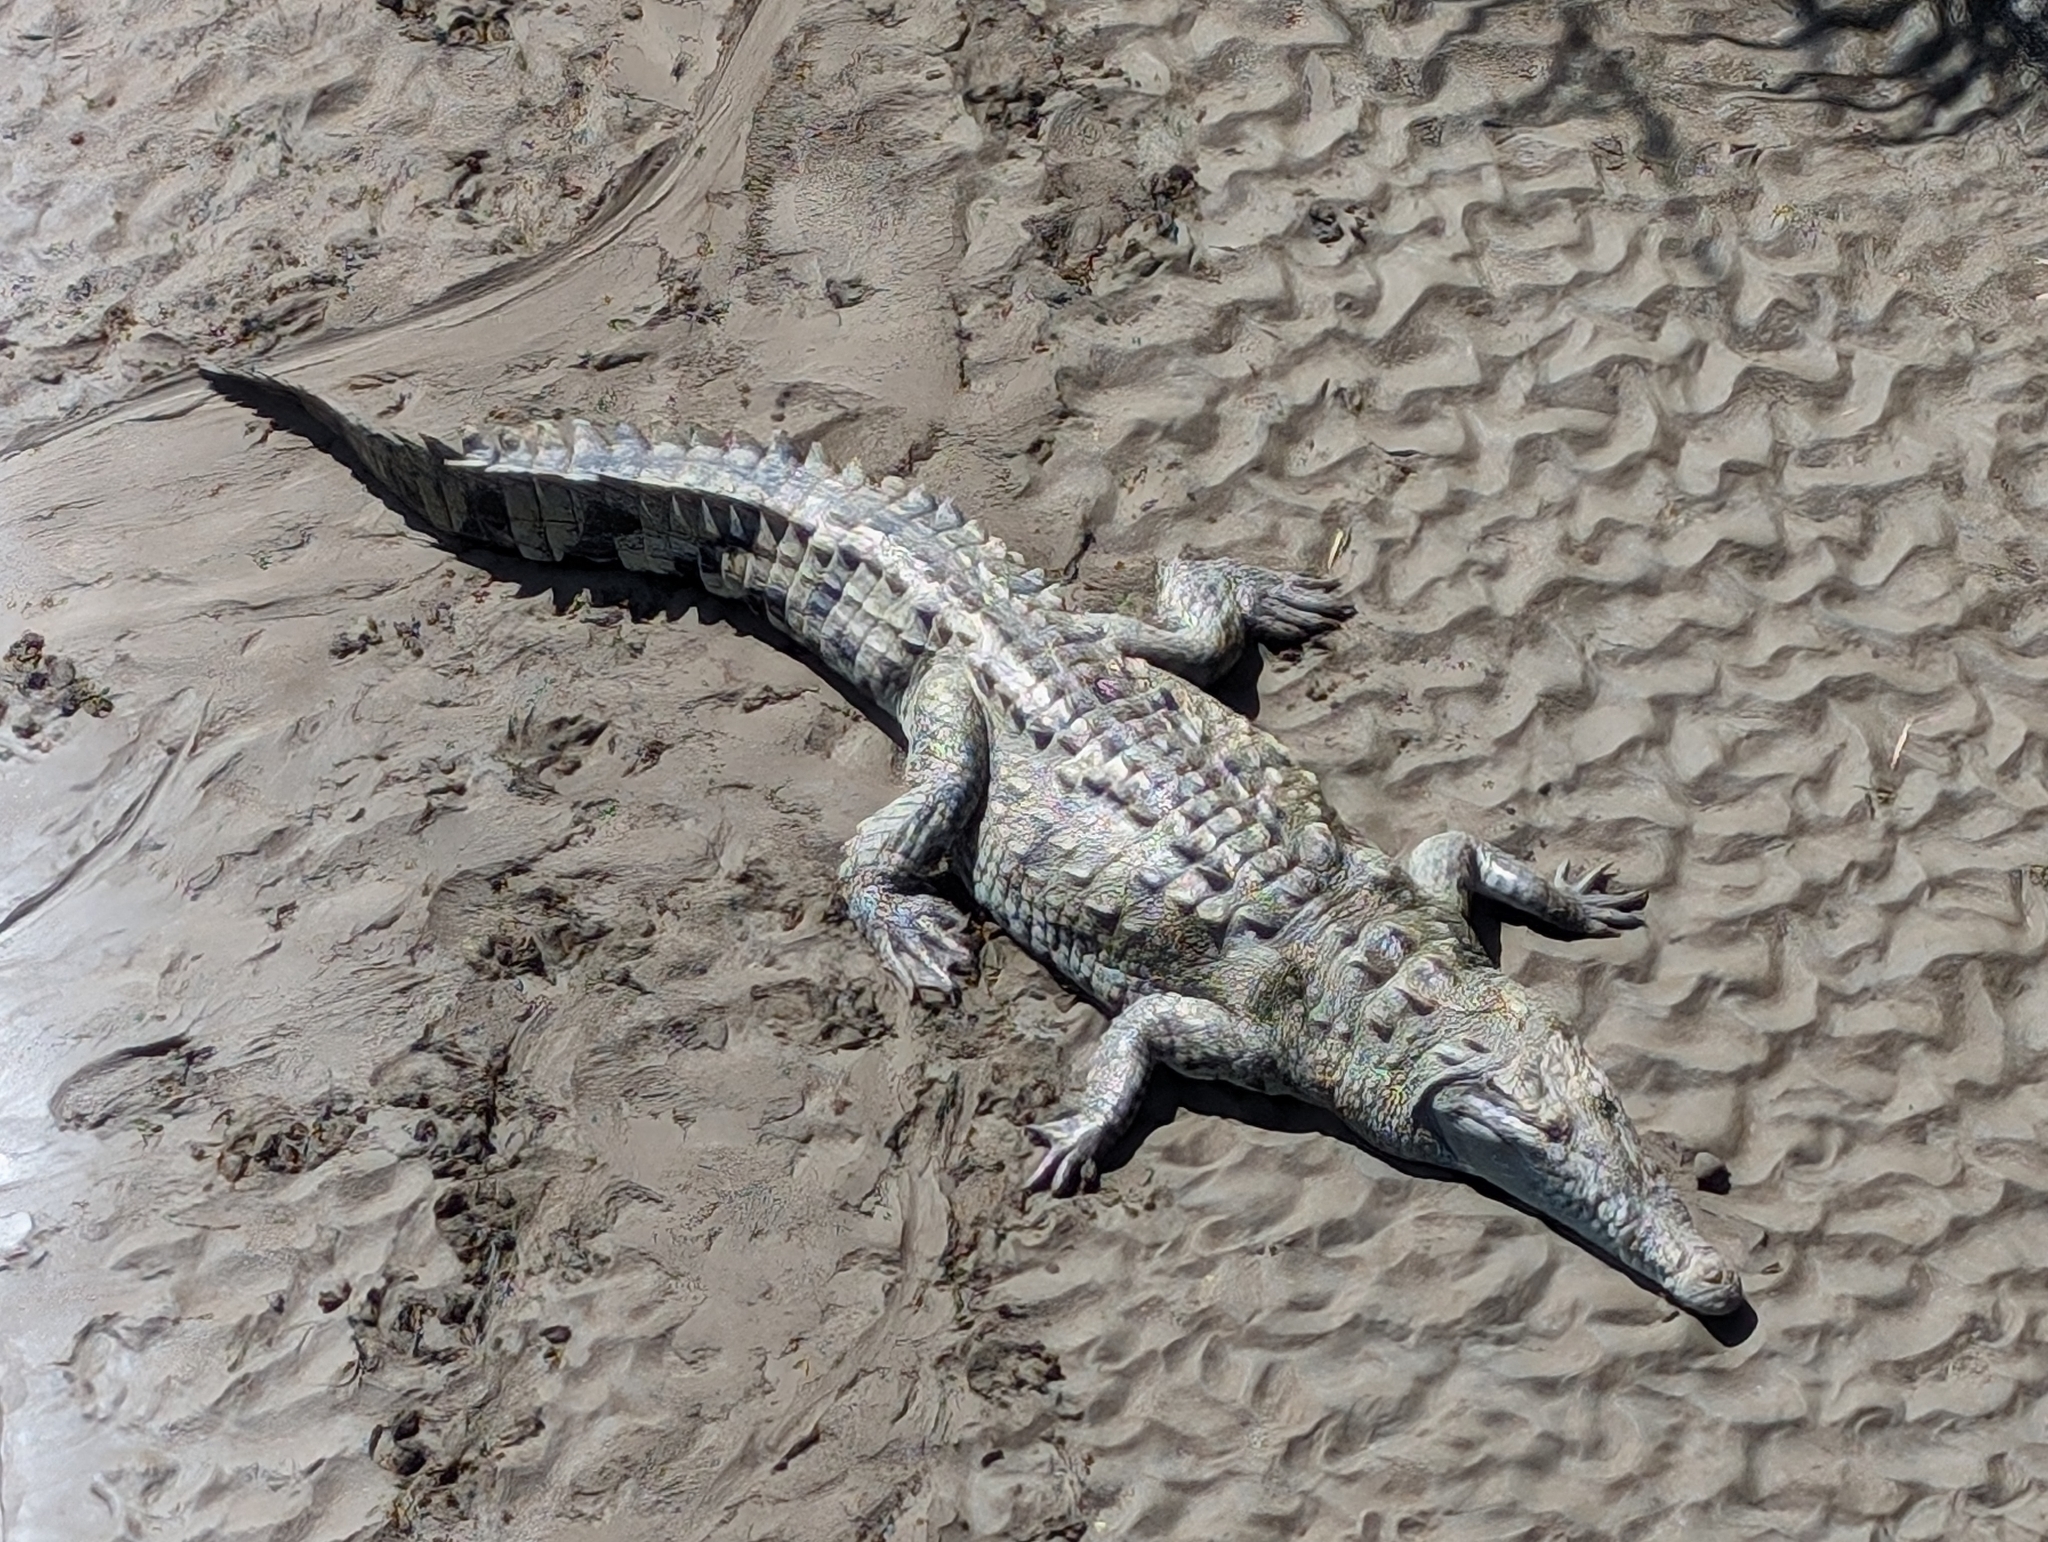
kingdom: Animalia
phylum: Chordata
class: Crocodylia
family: Crocodylidae
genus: Crocodylus
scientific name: Crocodylus acutus
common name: American crocodile
